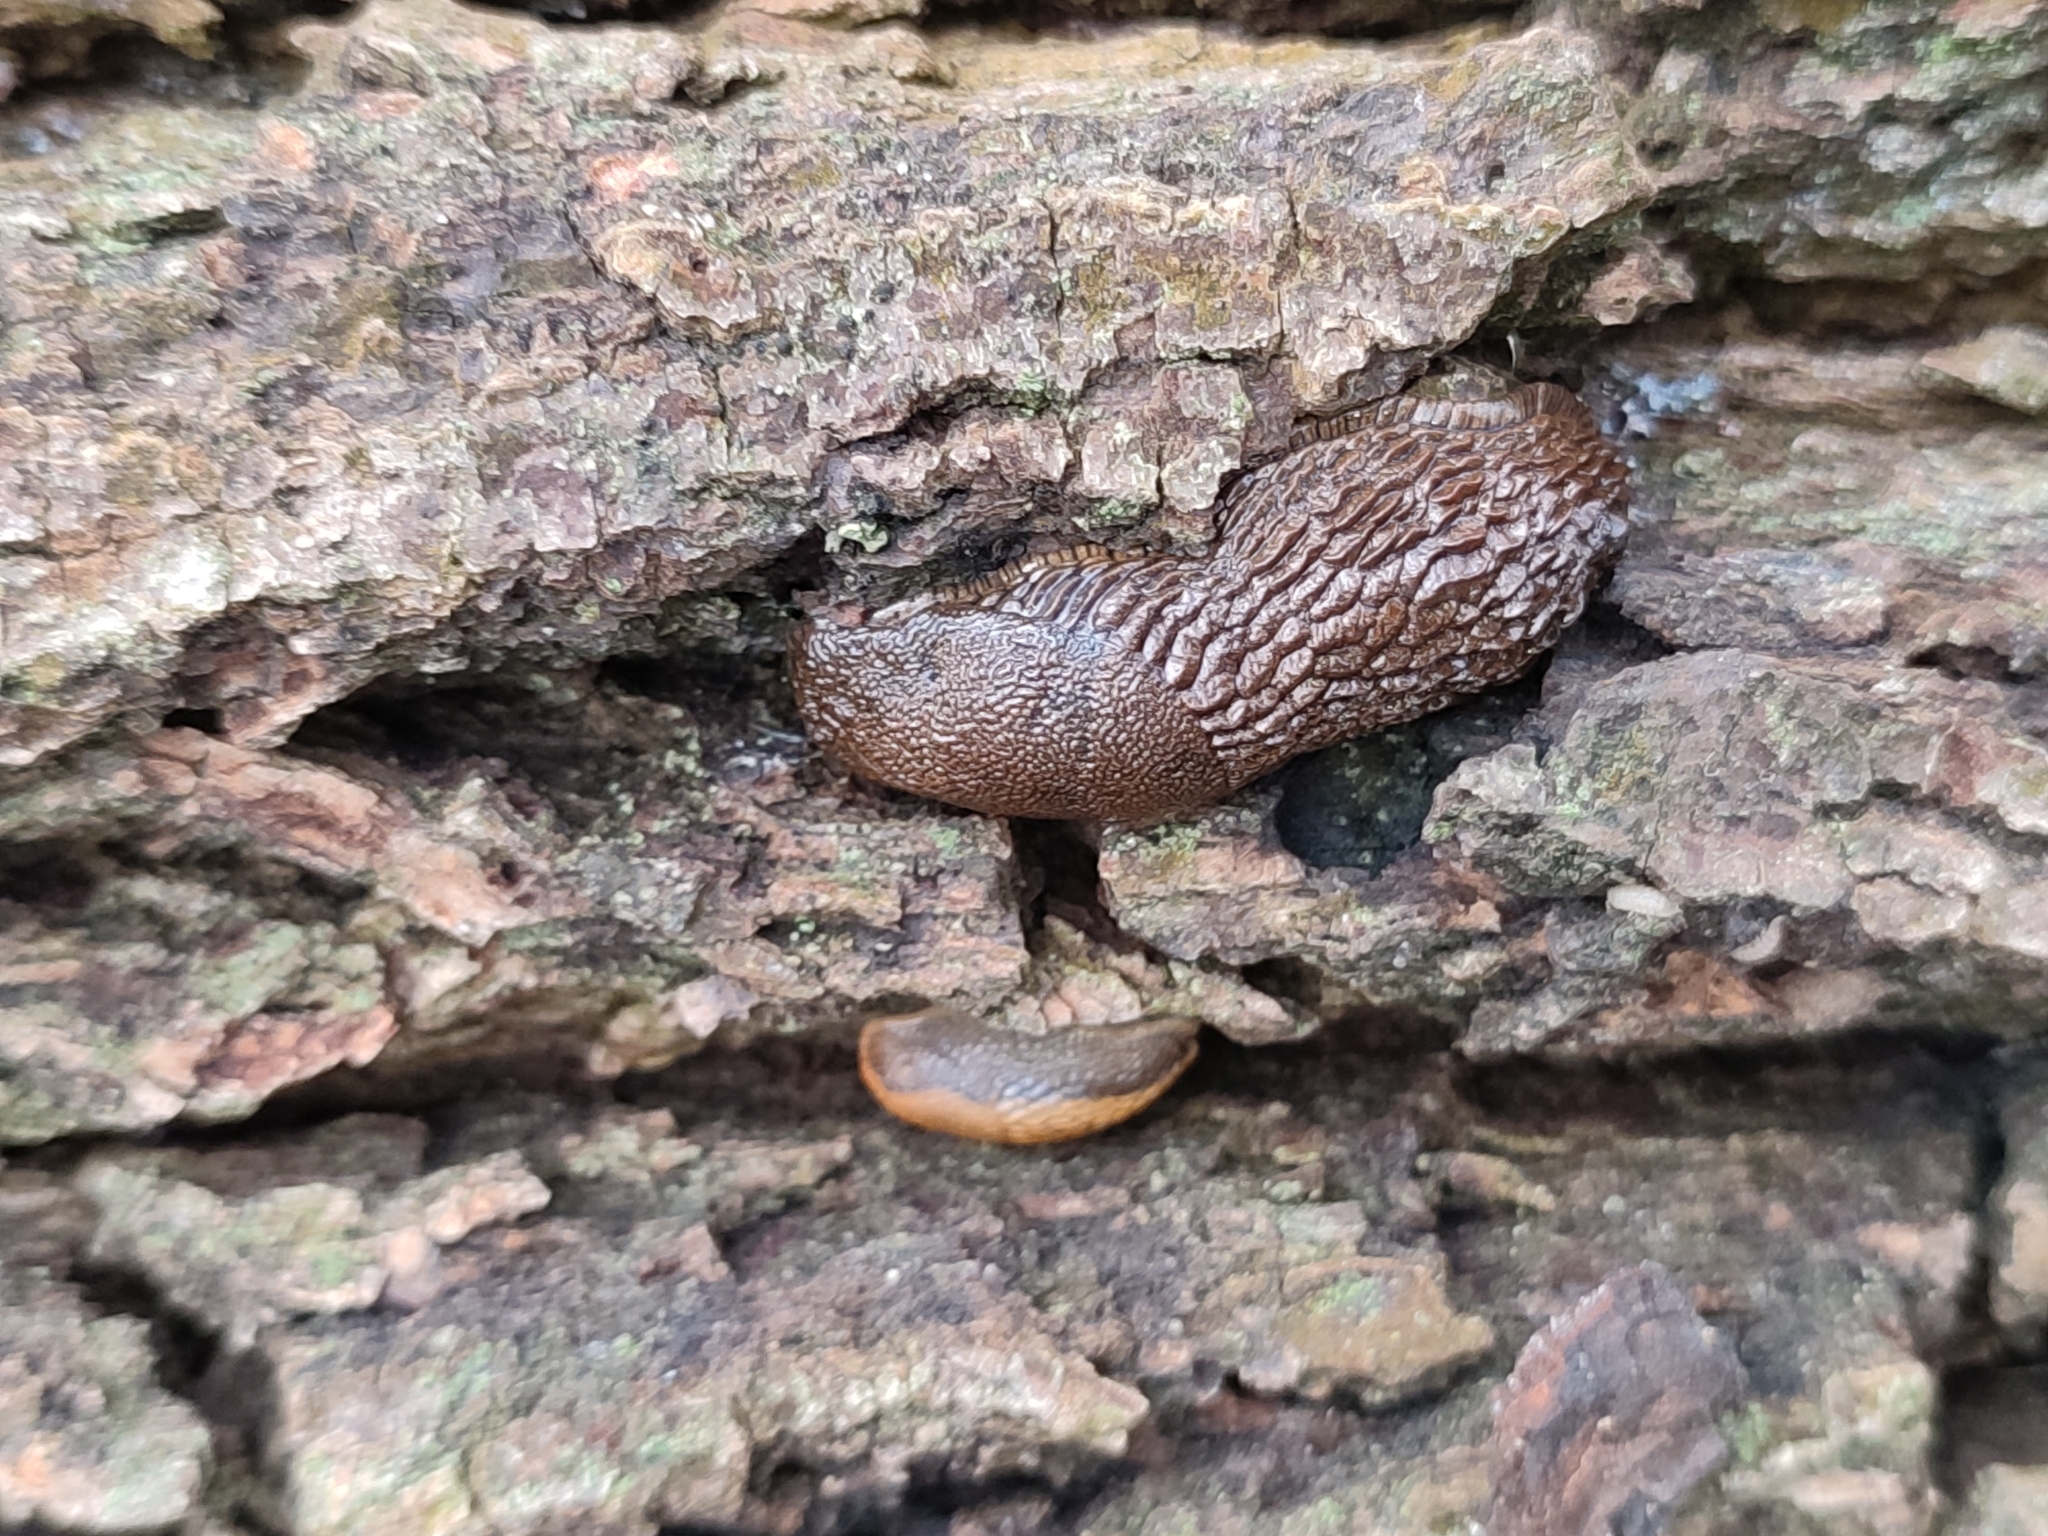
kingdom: Animalia
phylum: Mollusca
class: Gastropoda
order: Stylommatophora
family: Arionidae
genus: Arion
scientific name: Arion vulgaris
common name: Lusitanian slug
